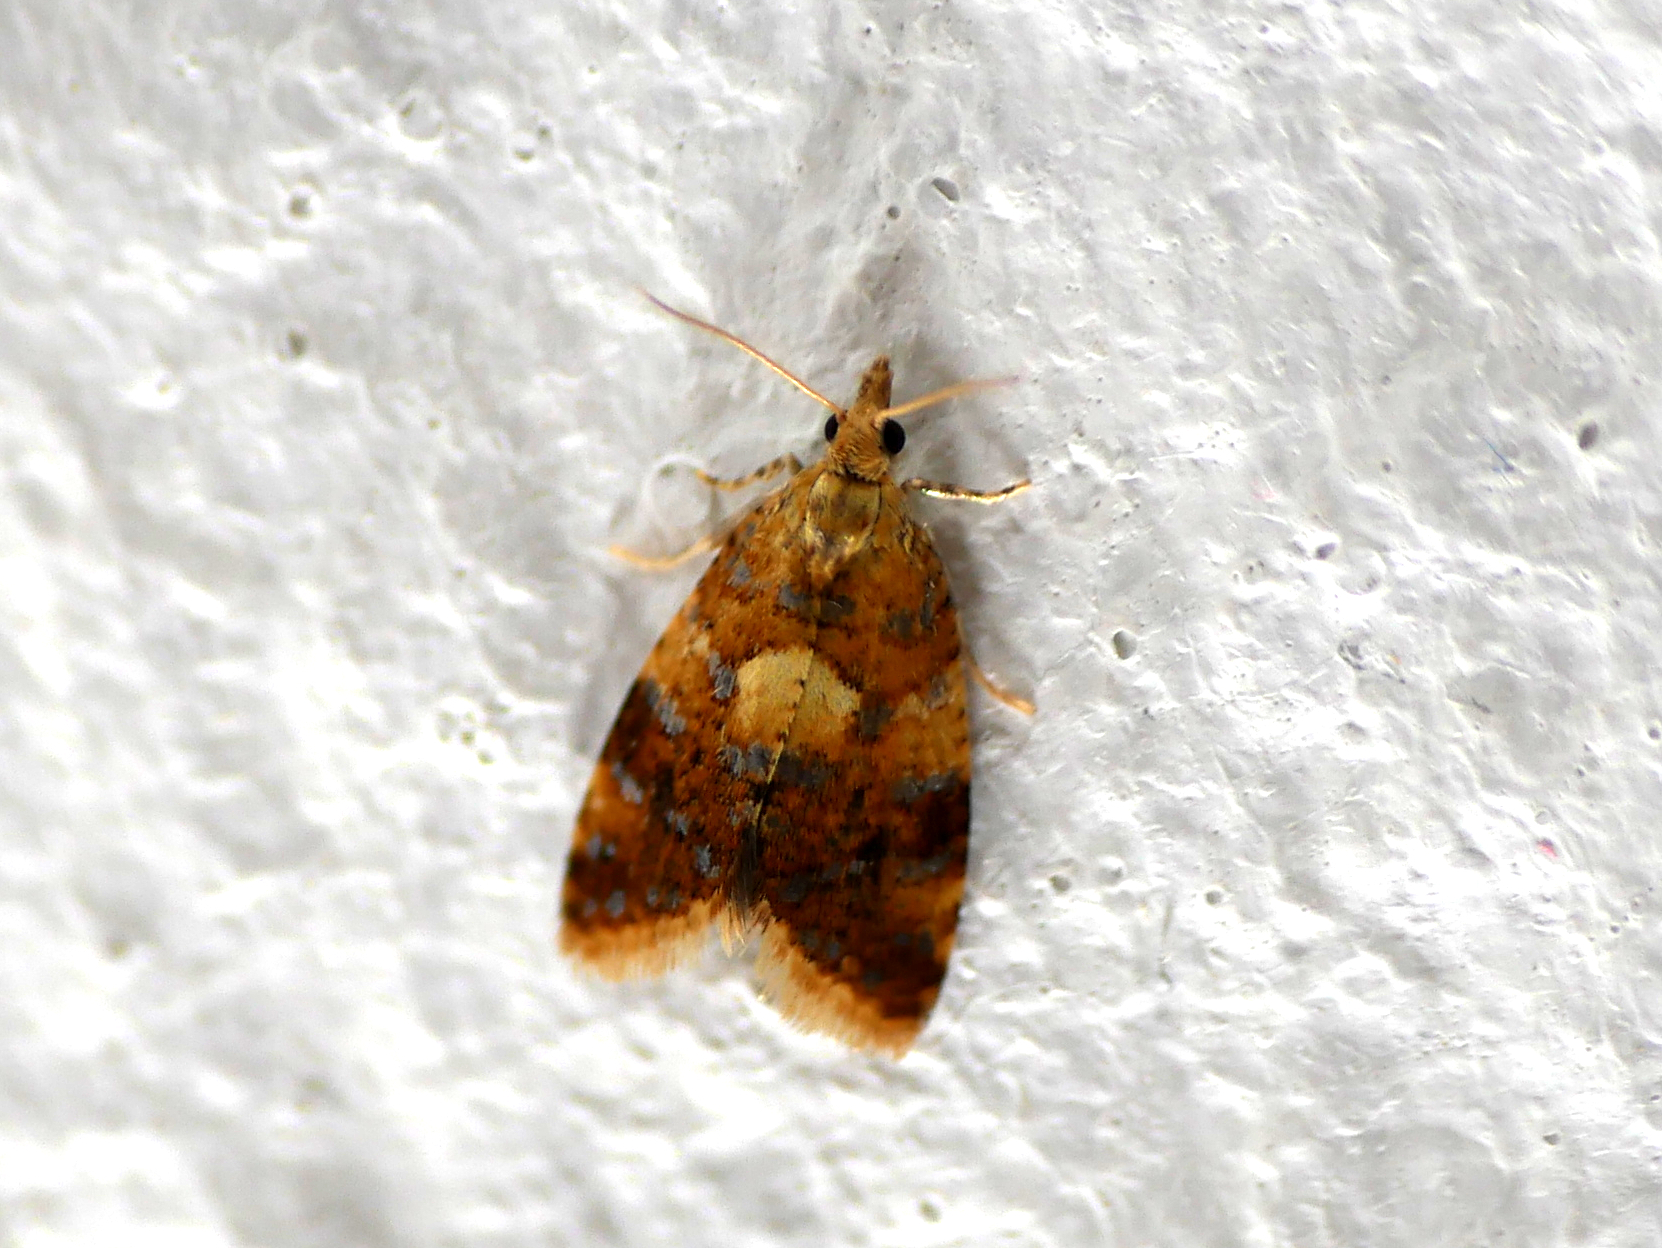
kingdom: Animalia
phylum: Arthropoda
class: Insecta
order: Lepidoptera
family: Tortricidae
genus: Pseudargyrotoza
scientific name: Pseudargyrotoza conwagana
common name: Yellow-spot twist
